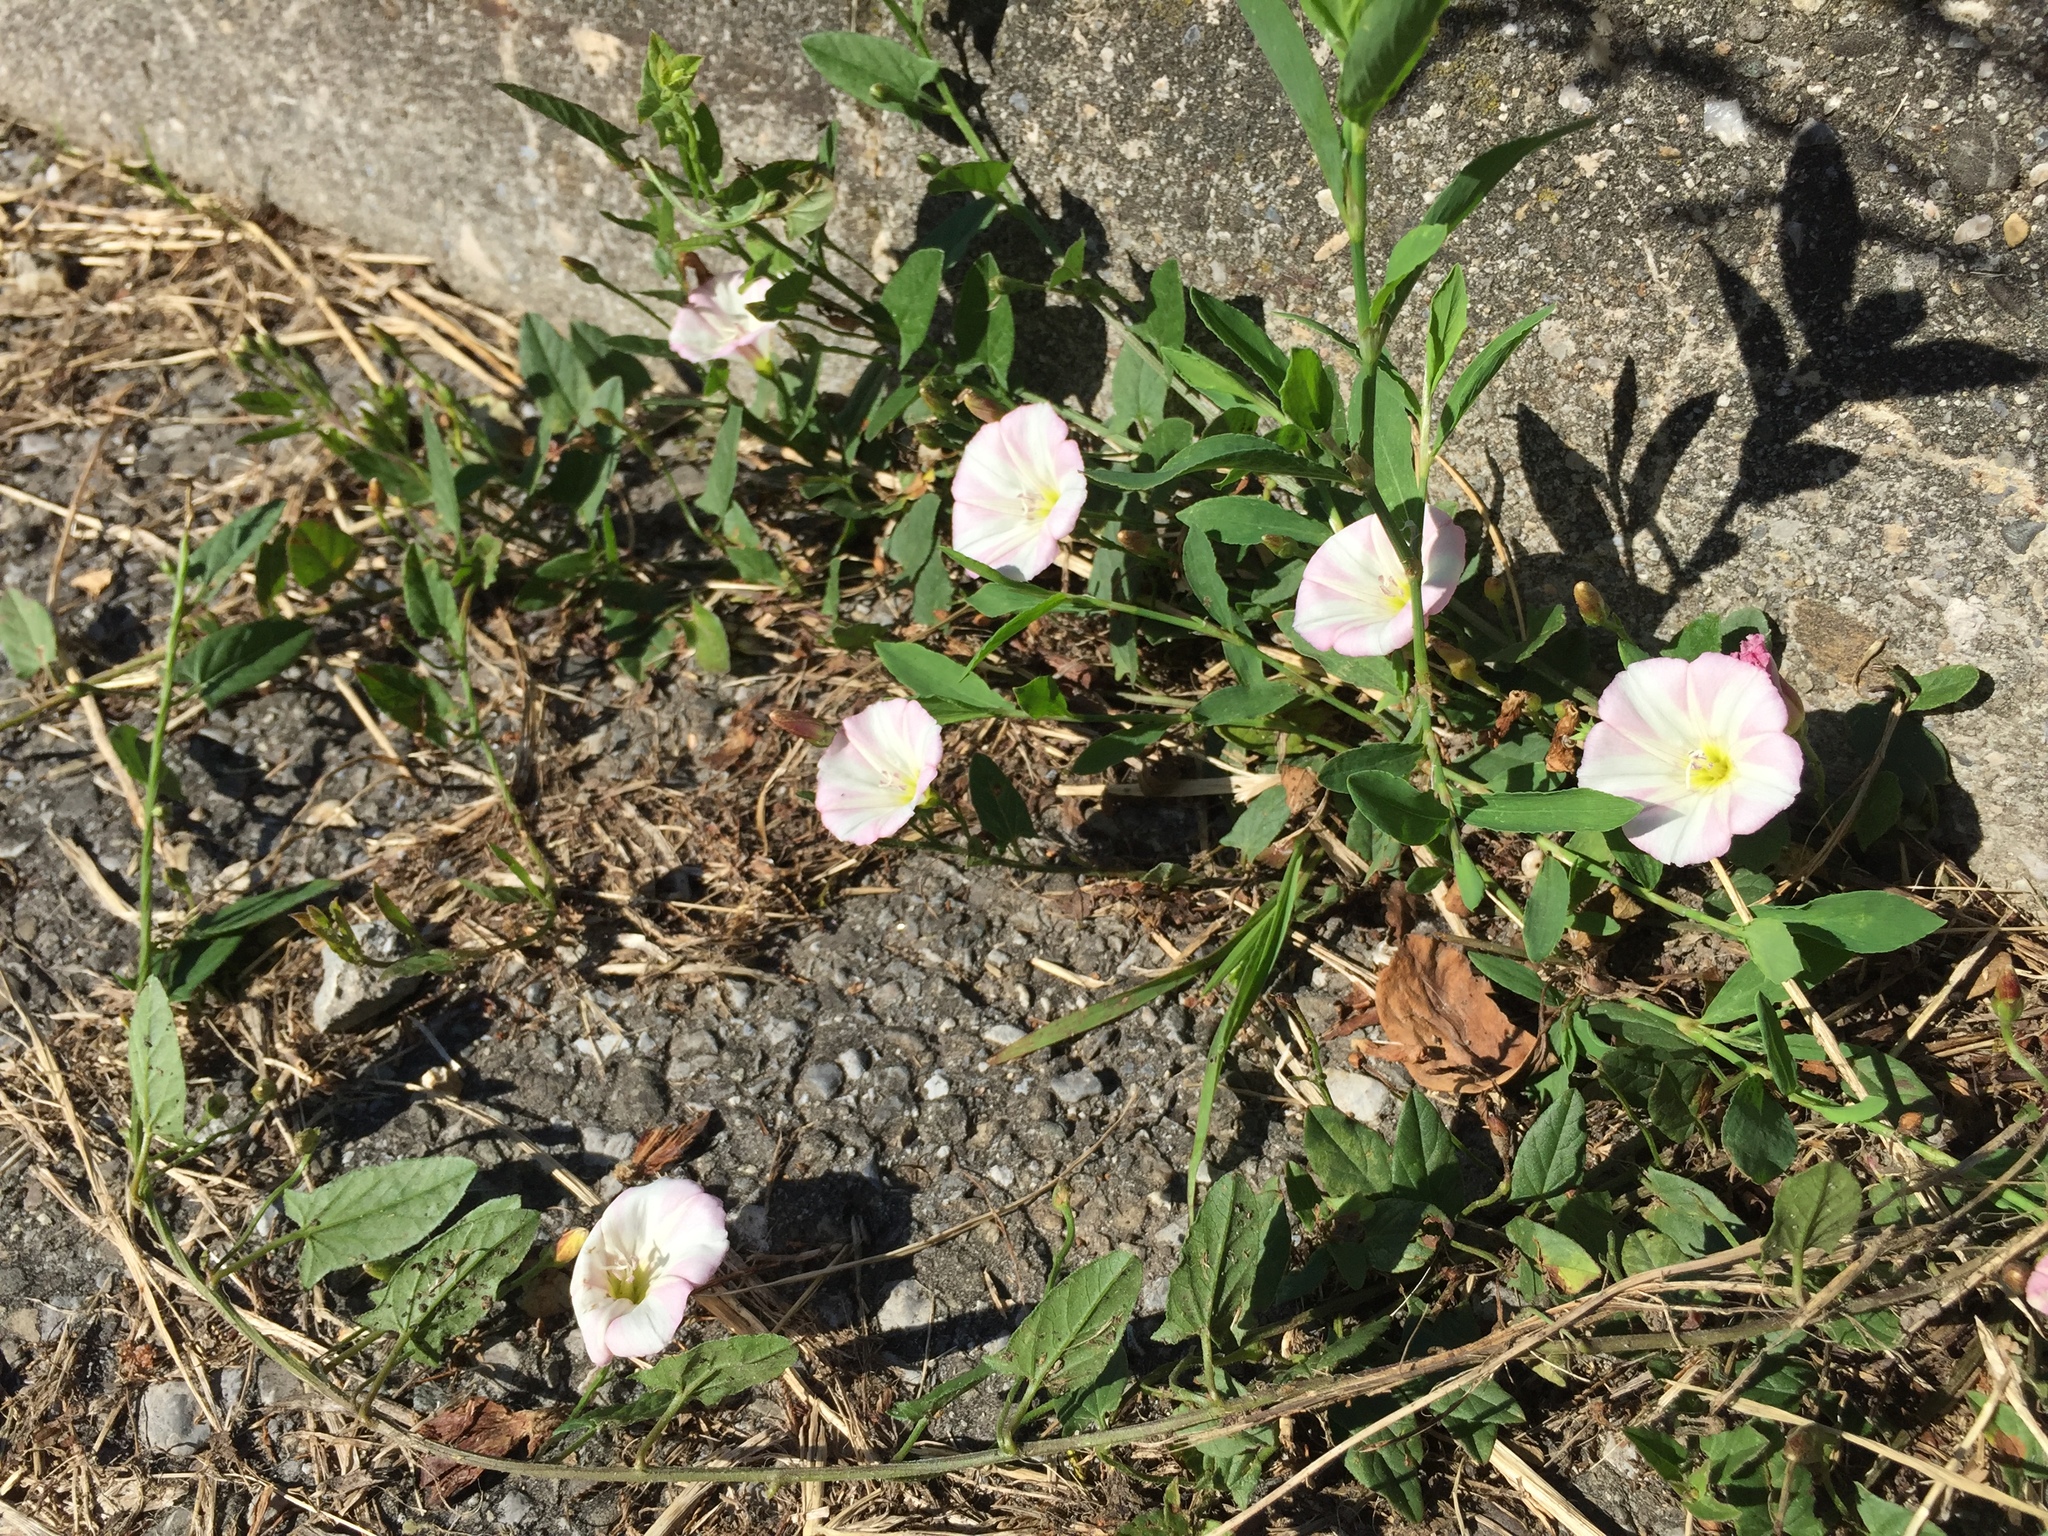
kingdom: Plantae
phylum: Tracheophyta
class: Magnoliopsida
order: Solanales
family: Convolvulaceae
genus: Convolvulus
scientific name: Convolvulus arvensis
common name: Field bindweed
